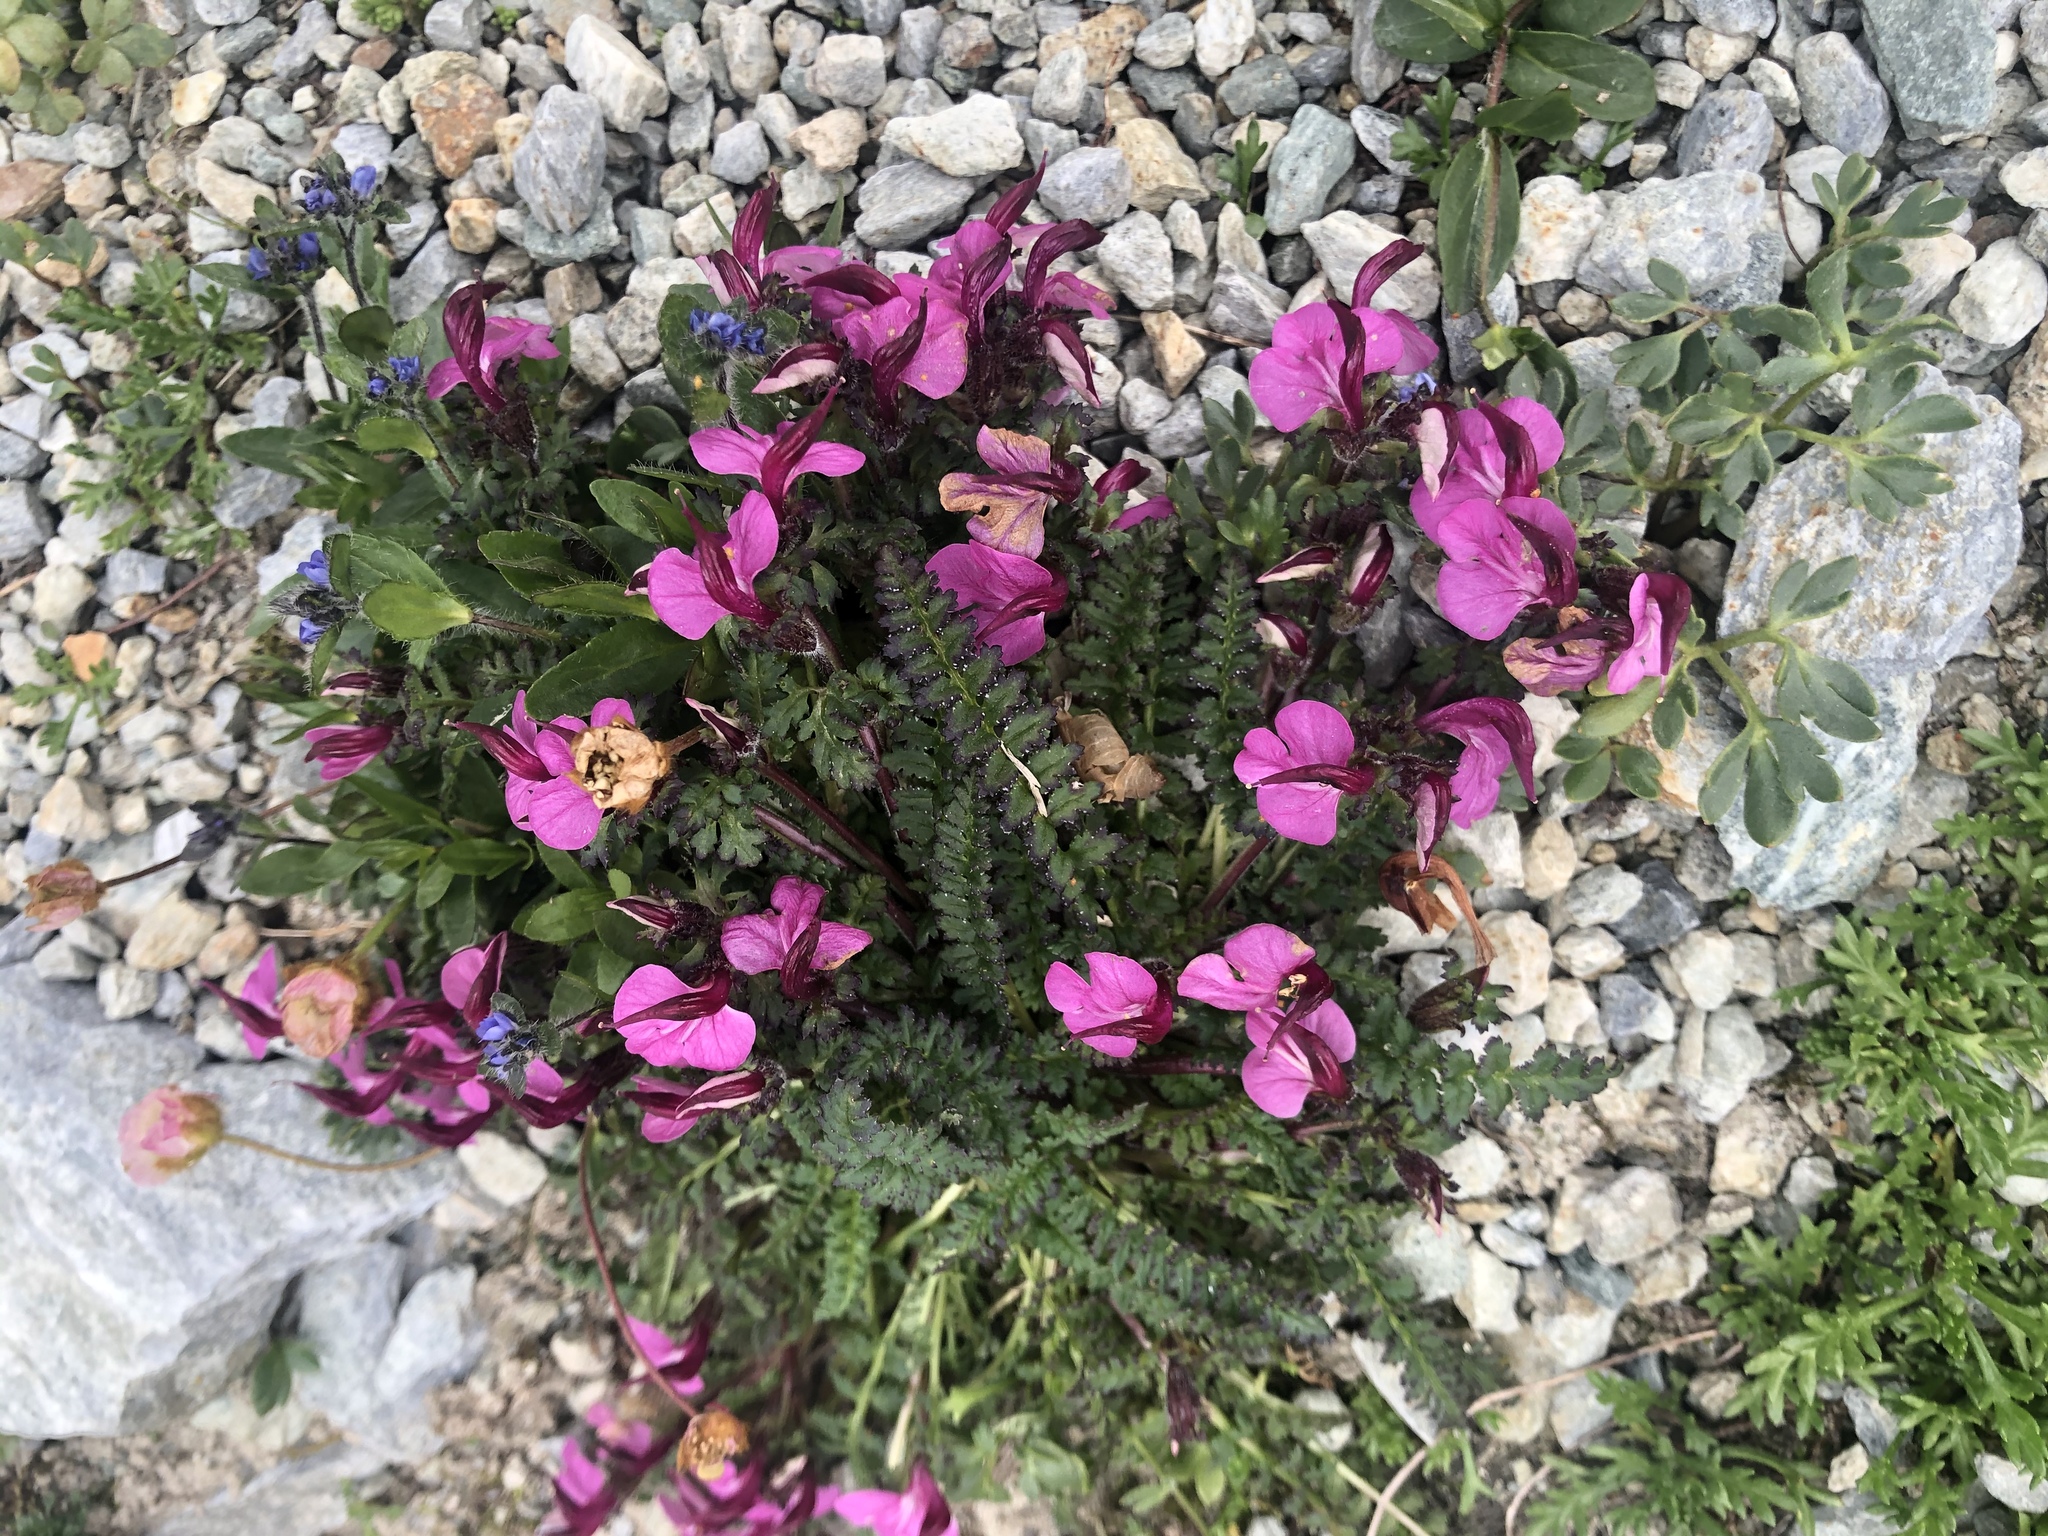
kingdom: Plantae
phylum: Tracheophyta
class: Magnoliopsida
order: Lamiales
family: Orobanchaceae
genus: Pedicularis
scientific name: Pedicularis kerneri
